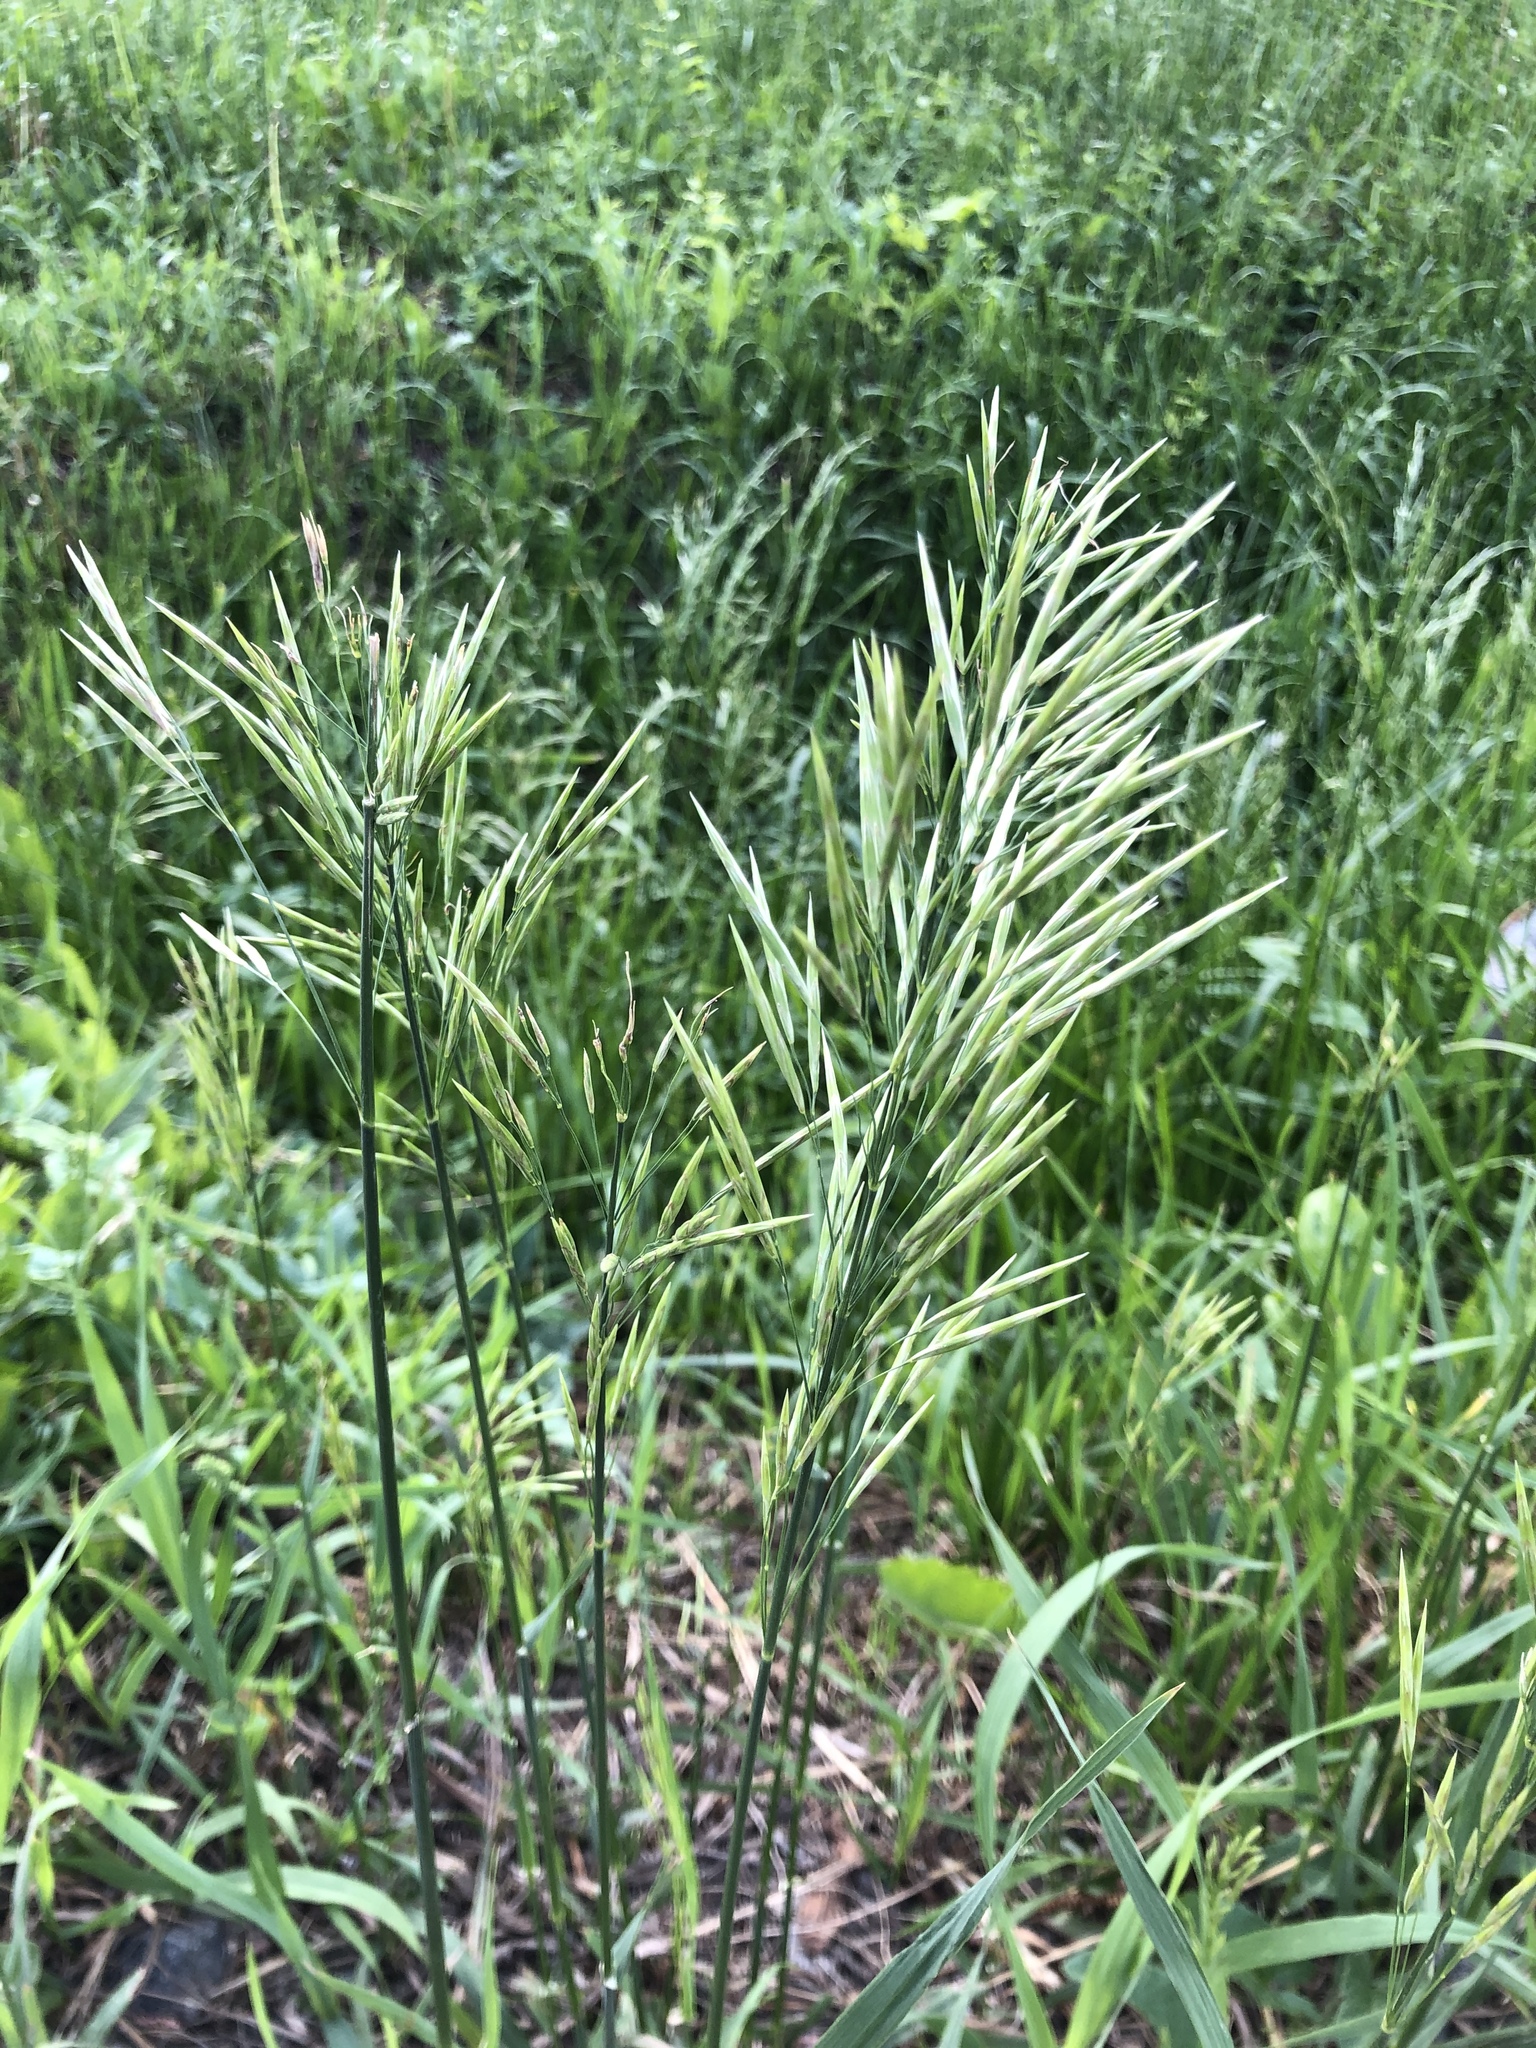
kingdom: Plantae
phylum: Tracheophyta
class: Liliopsida
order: Poales
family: Poaceae
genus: Bromus
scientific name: Bromus inermis
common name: Smooth brome
